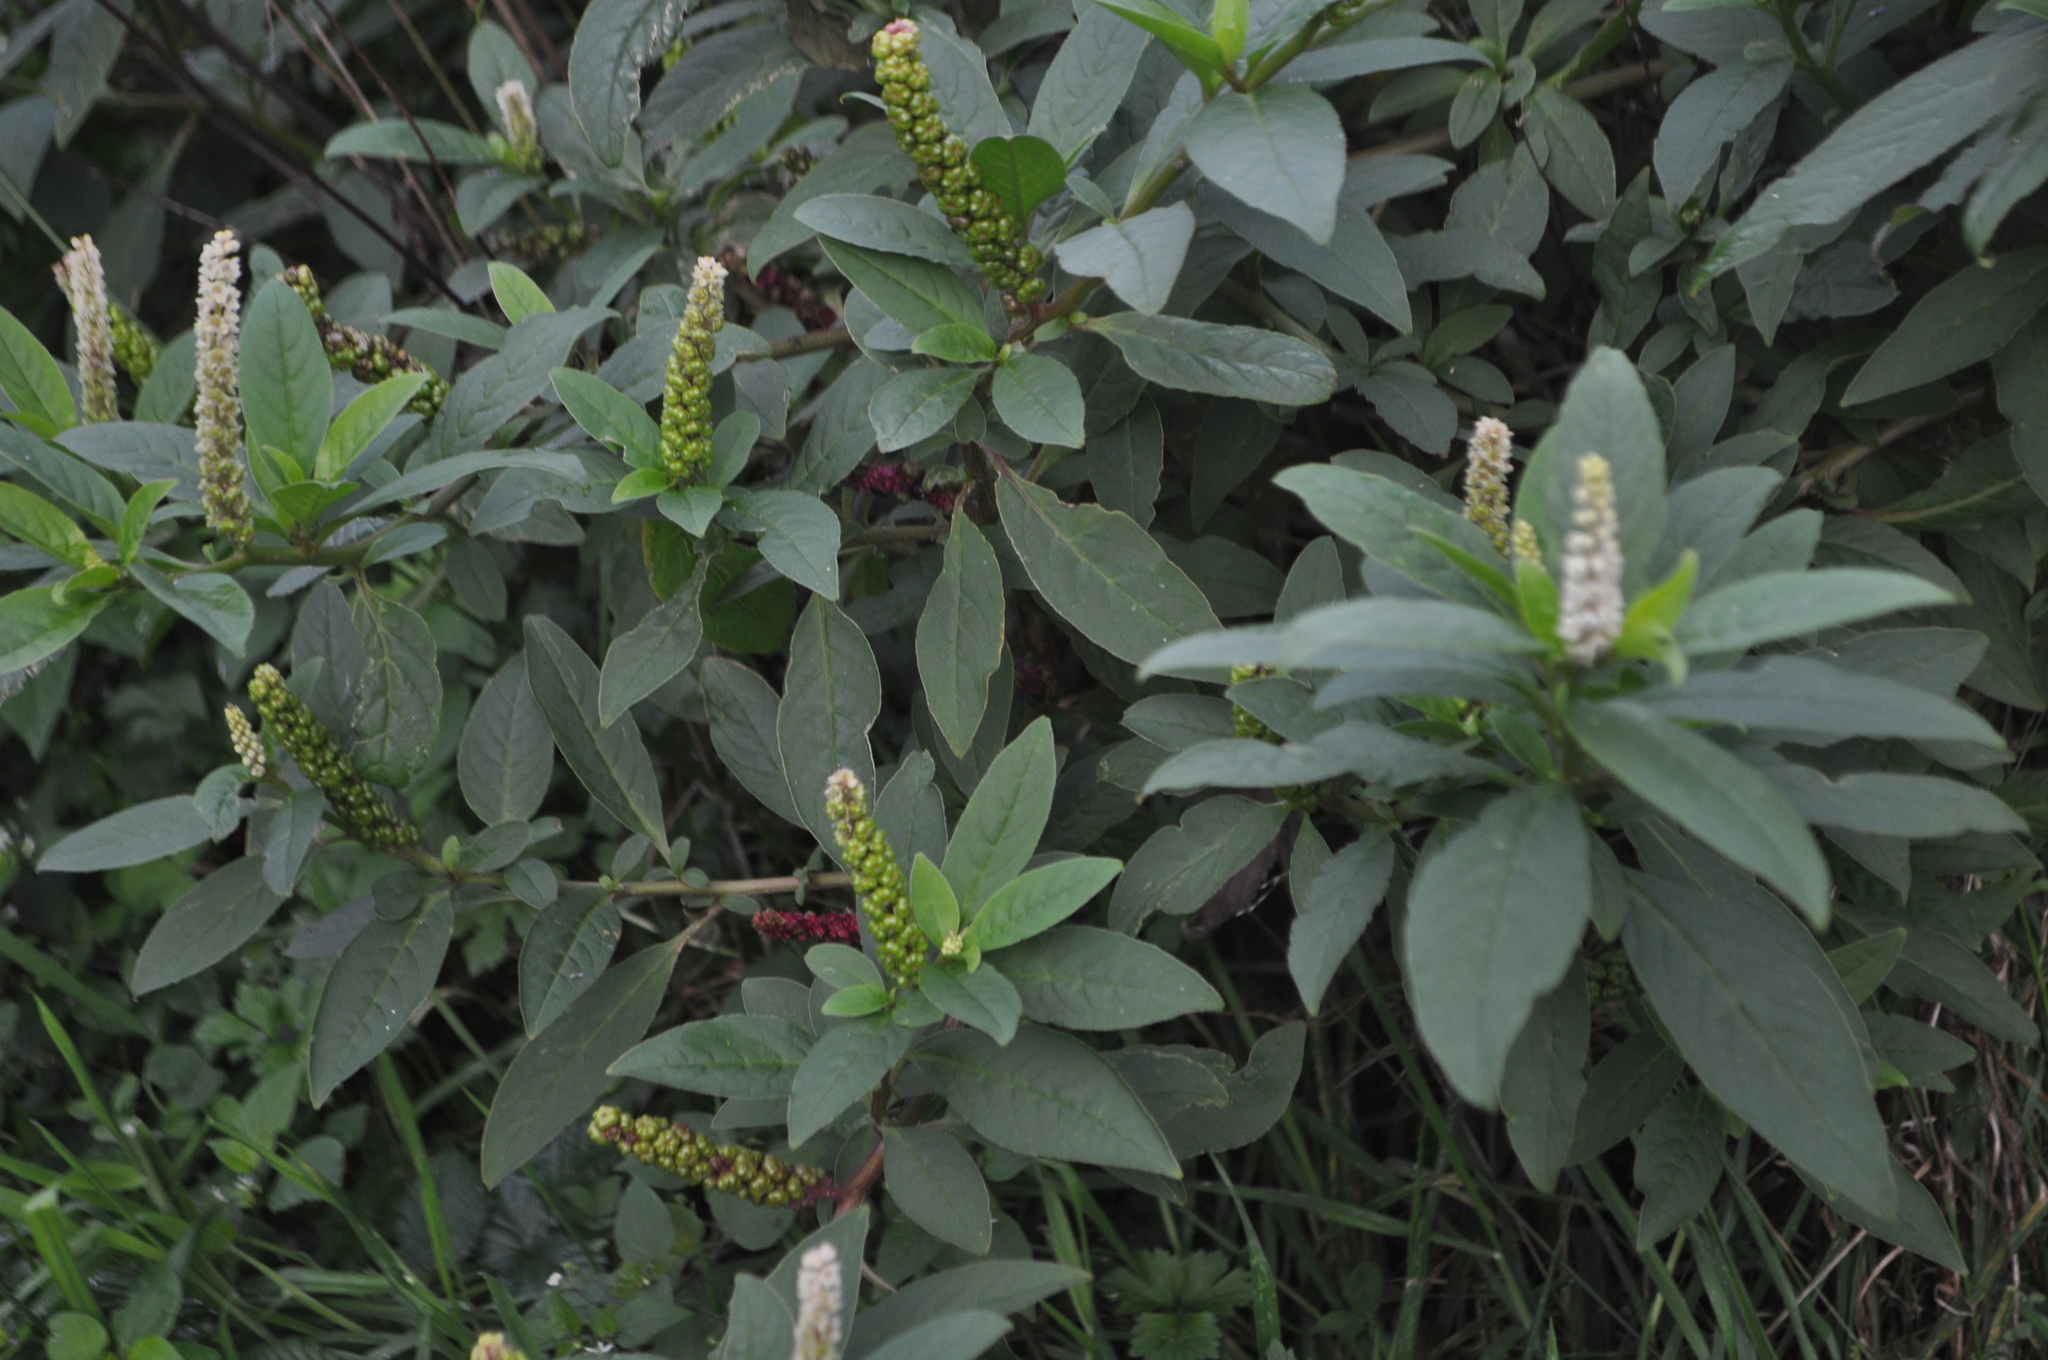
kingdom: Plantae
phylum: Tracheophyta
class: Magnoliopsida
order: Caryophyllales
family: Phytolaccaceae
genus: Phytolacca
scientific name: Phytolacca icosandra
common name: Button pokeweed
